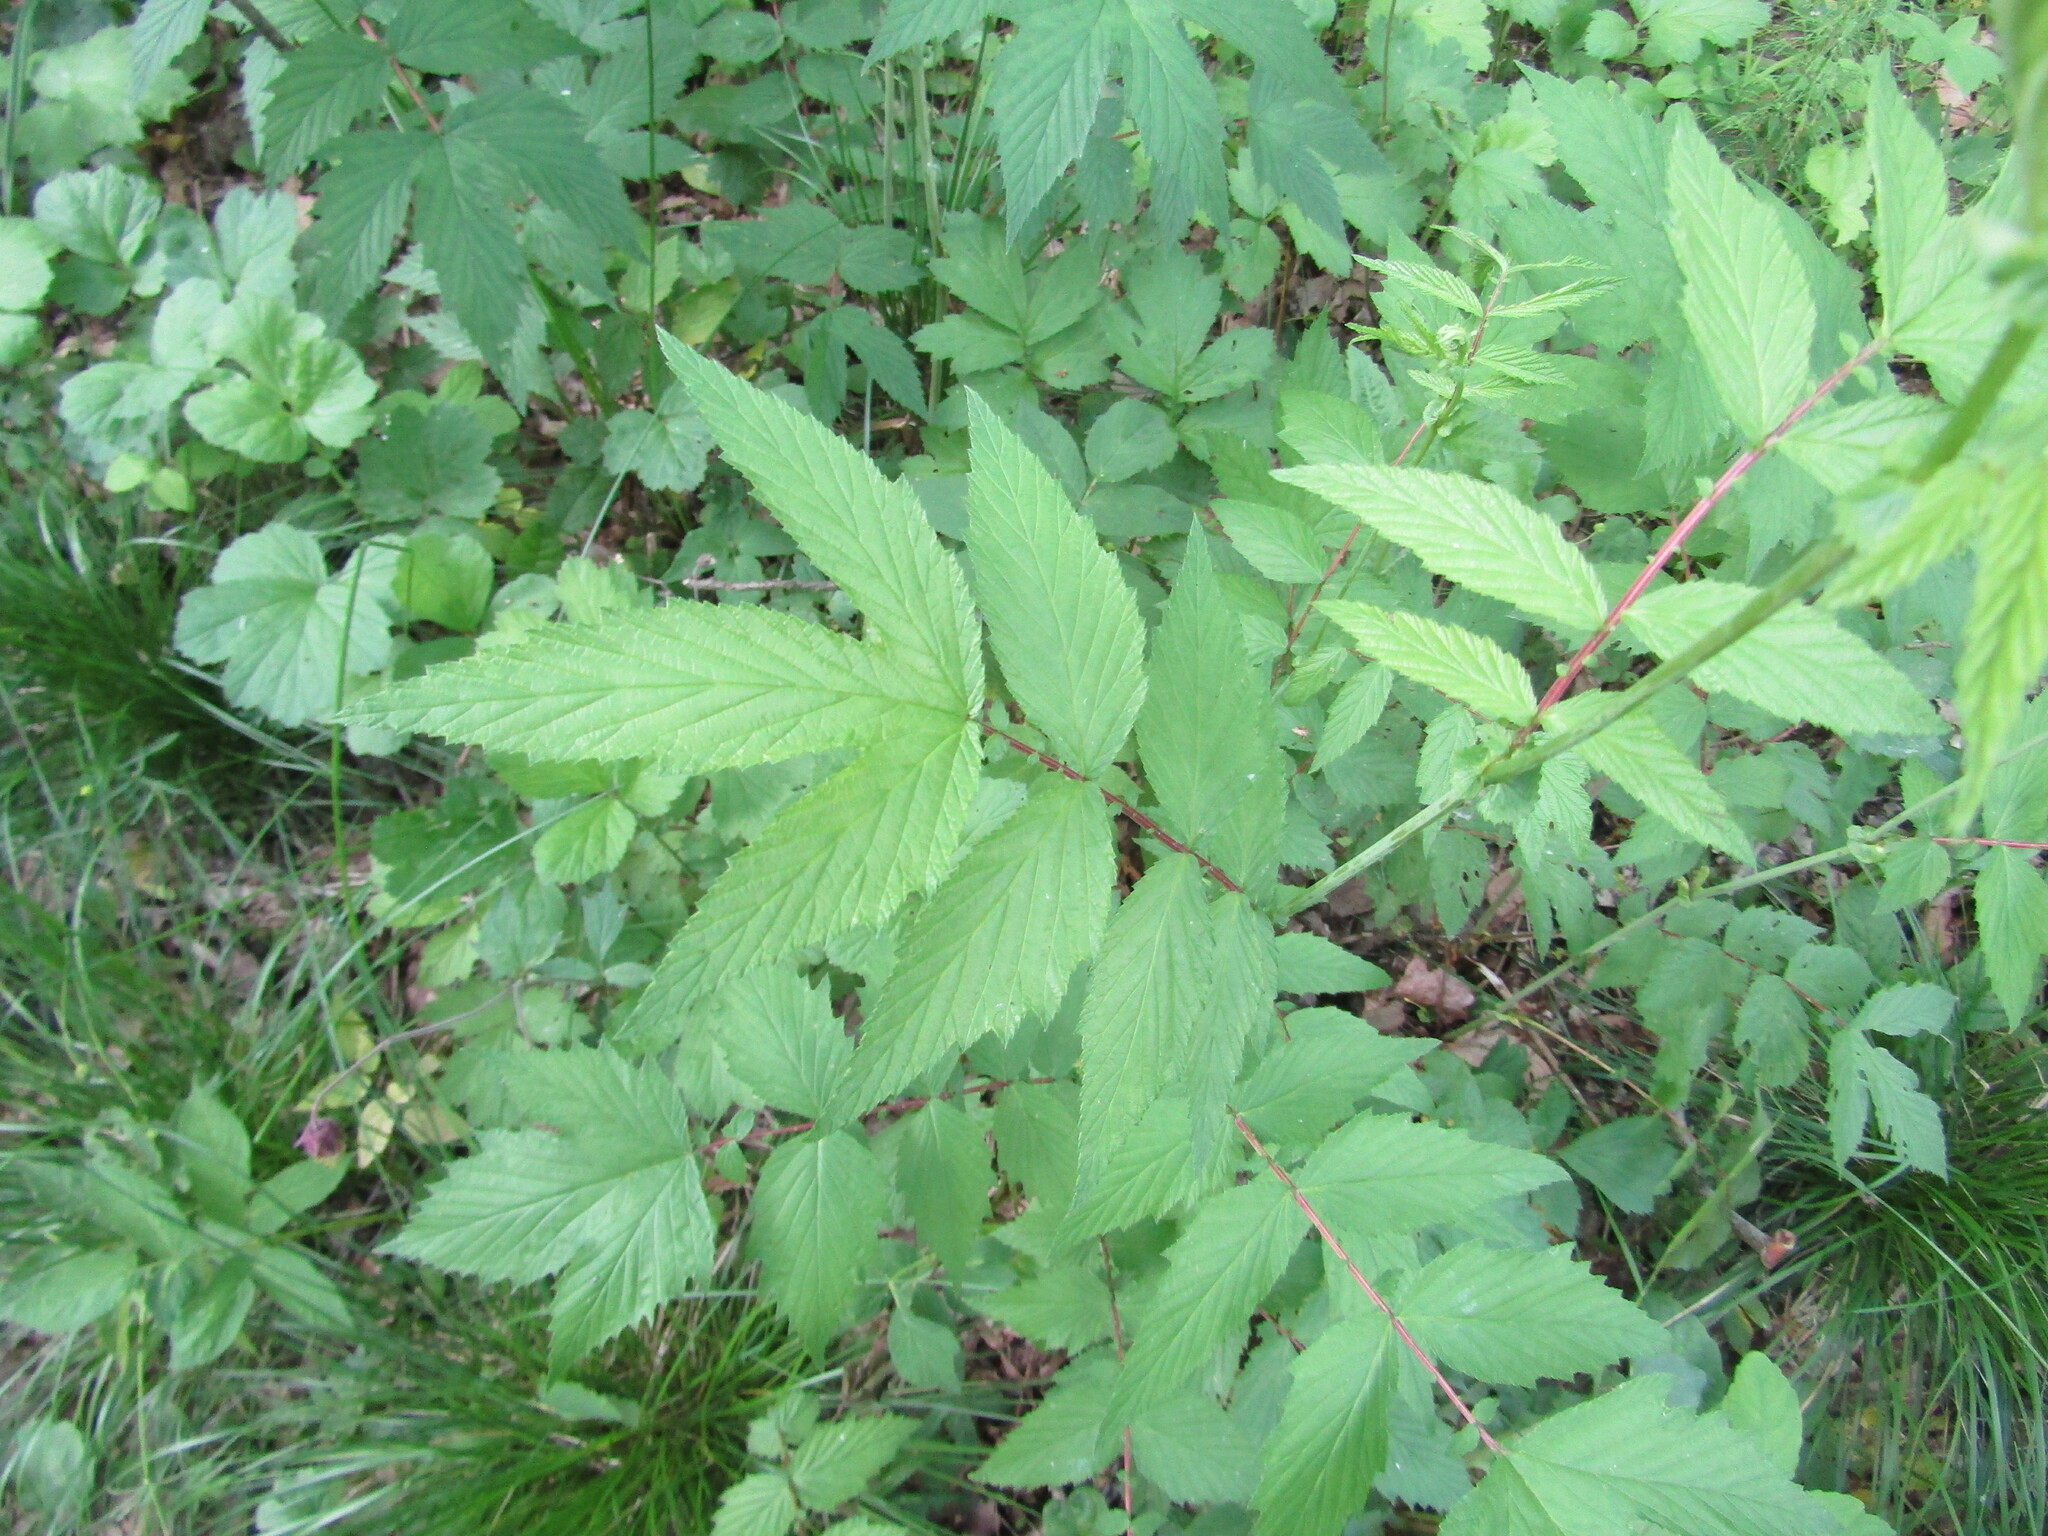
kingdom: Plantae
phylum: Tracheophyta
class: Magnoliopsida
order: Rosales
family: Rosaceae
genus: Filipendula
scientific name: Filipendula ulmaria
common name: Meadowsweet
